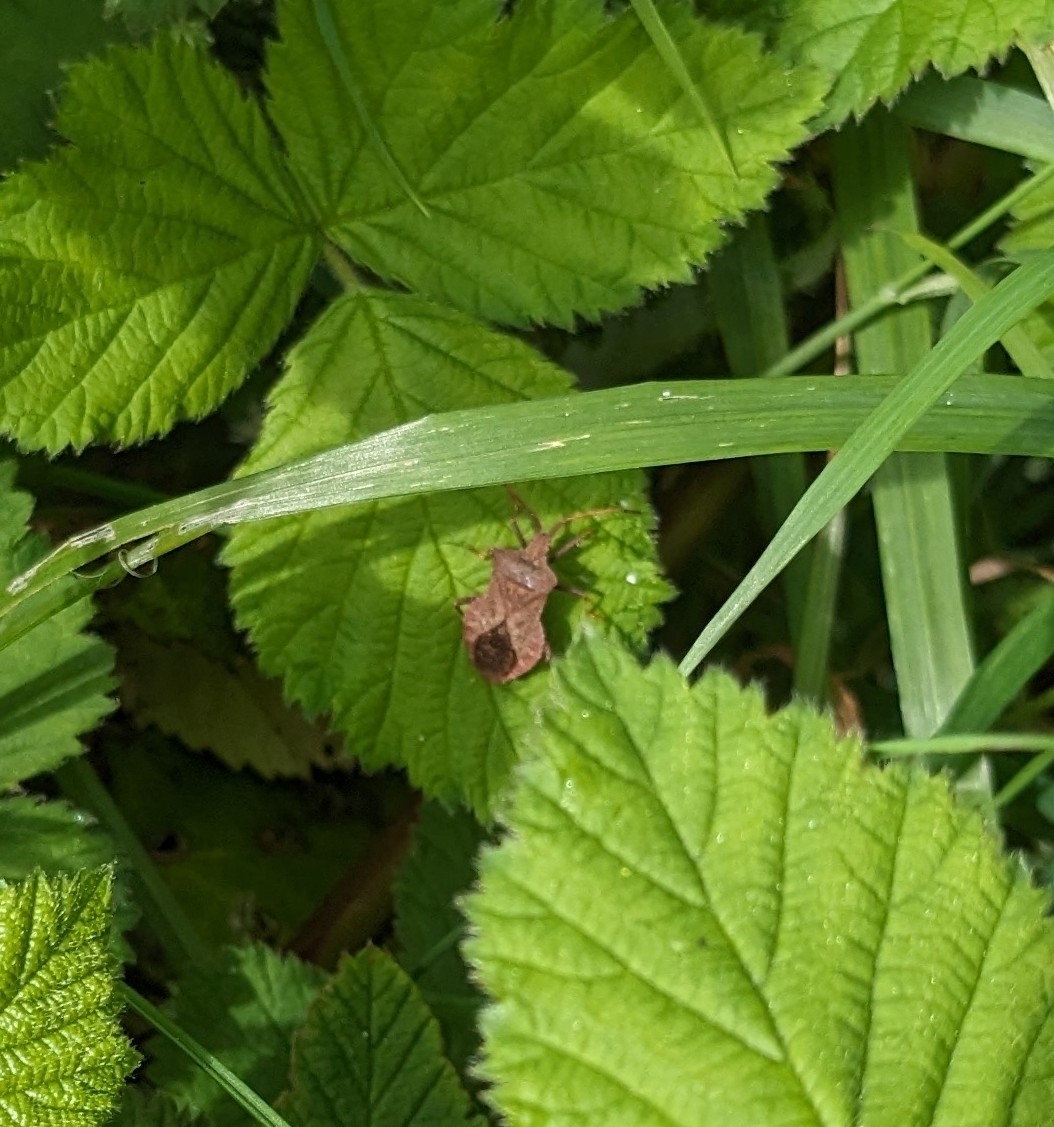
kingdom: Animalia
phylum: Arthropoda
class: Insecta
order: Hemiptera
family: Coreidae
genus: Coreus
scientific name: Coreus marginatus
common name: Dock bug
